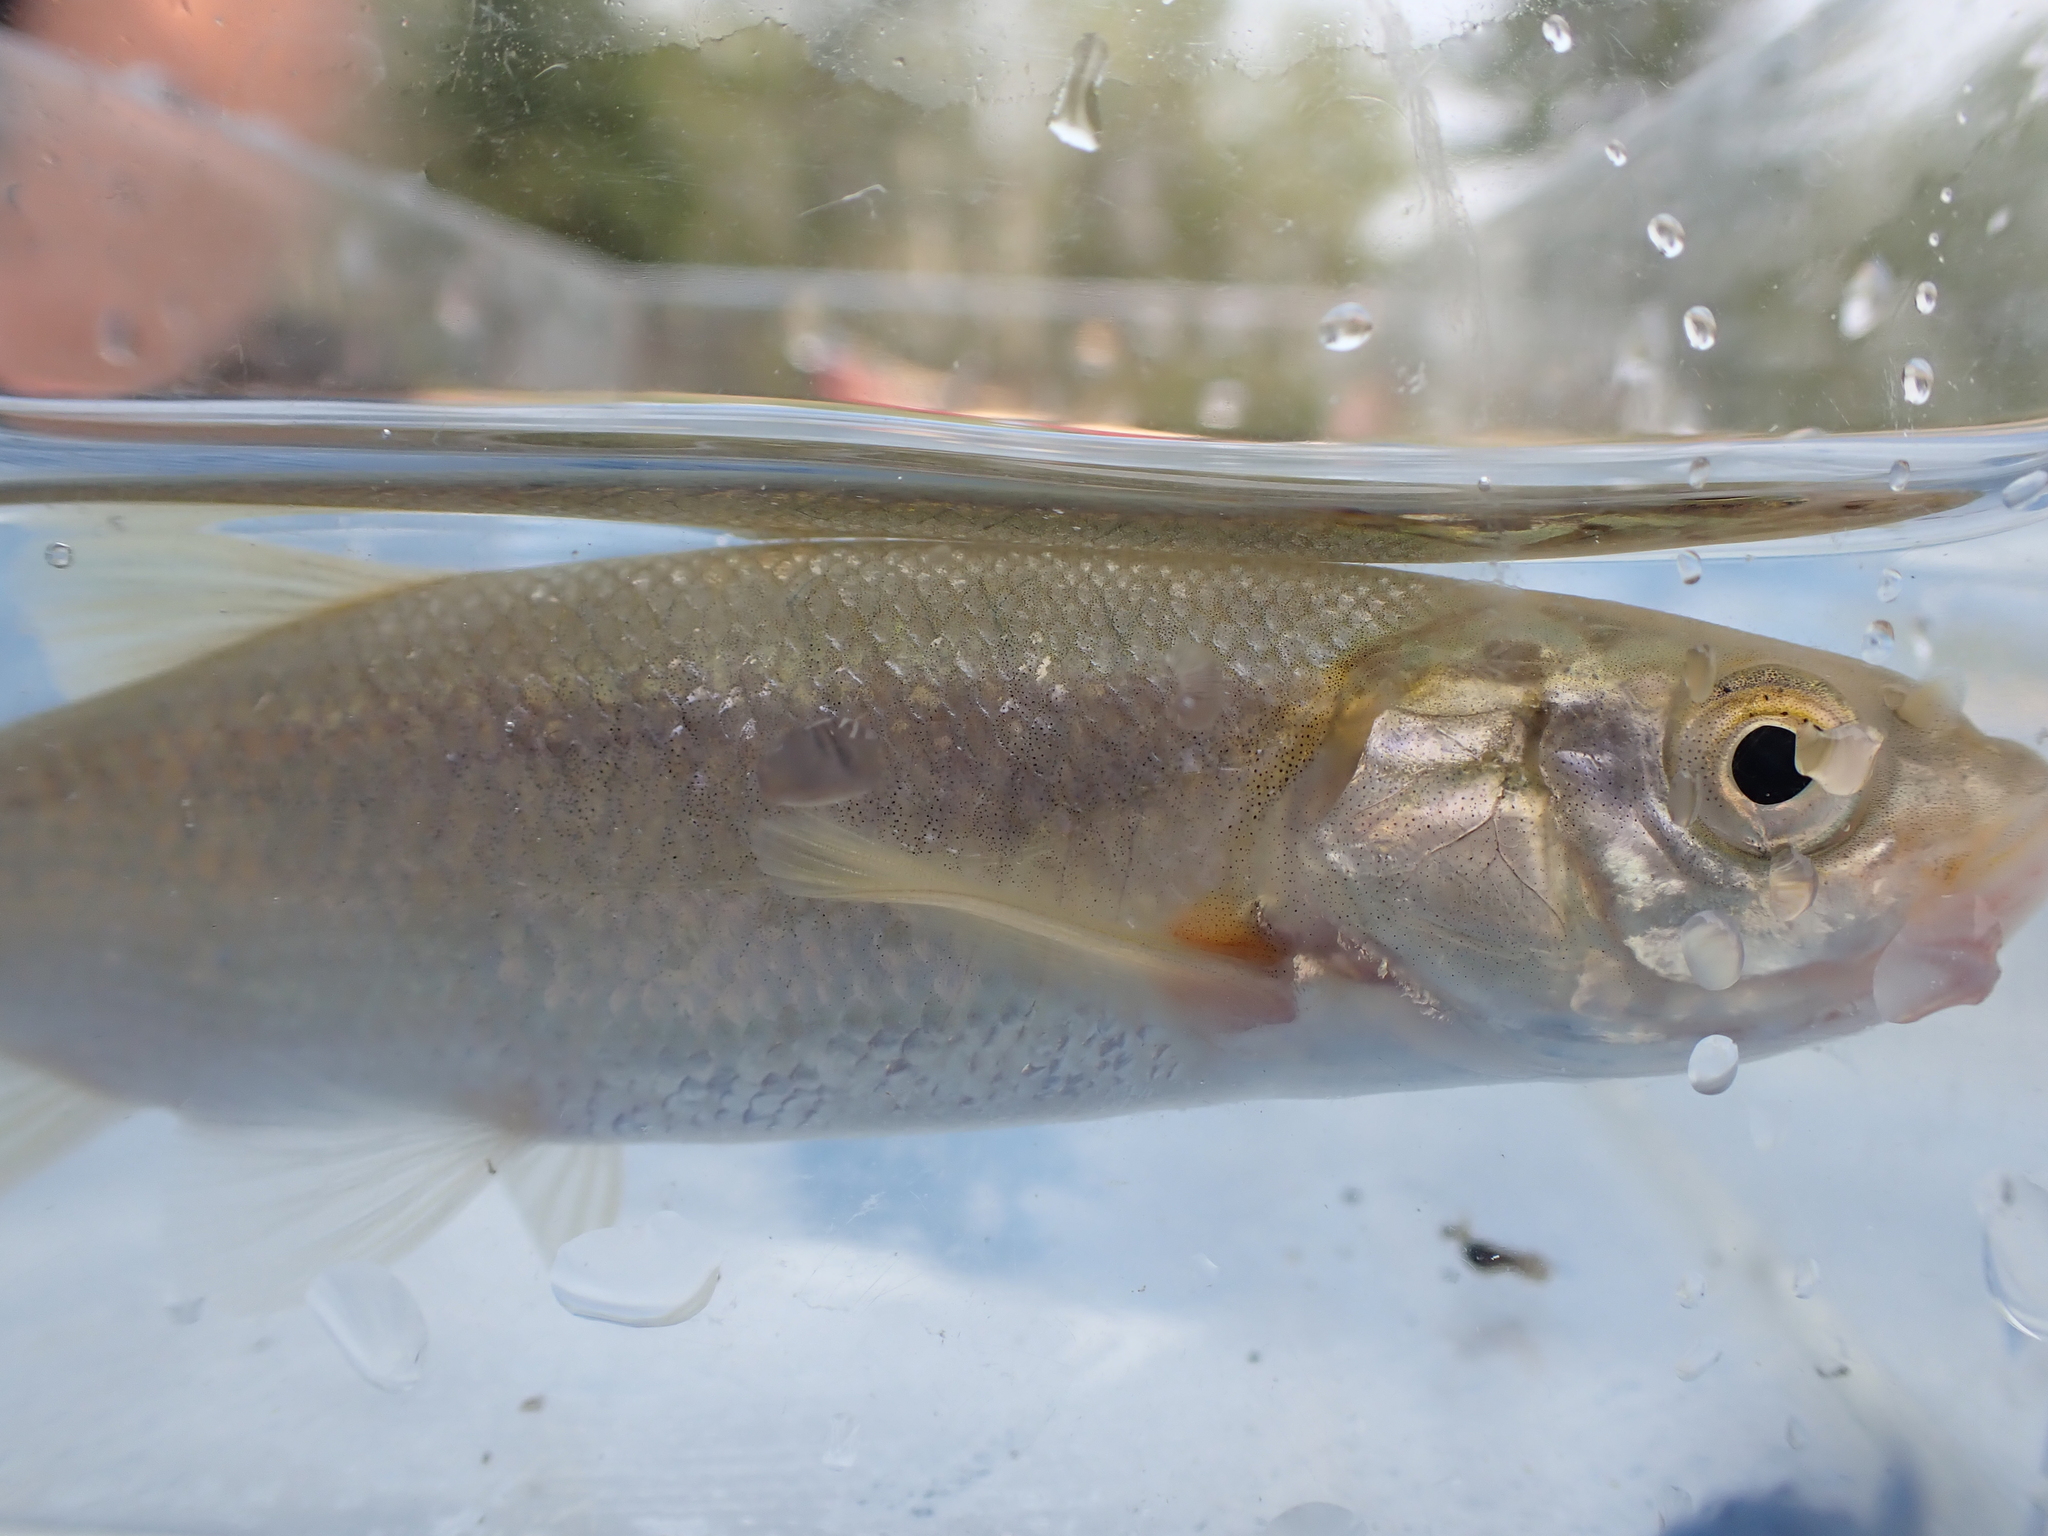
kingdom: Animalia
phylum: Chordata
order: Cypriniformes
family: Cyprinidae
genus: Couesius
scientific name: Couesius plumbeus
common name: Lake chub
